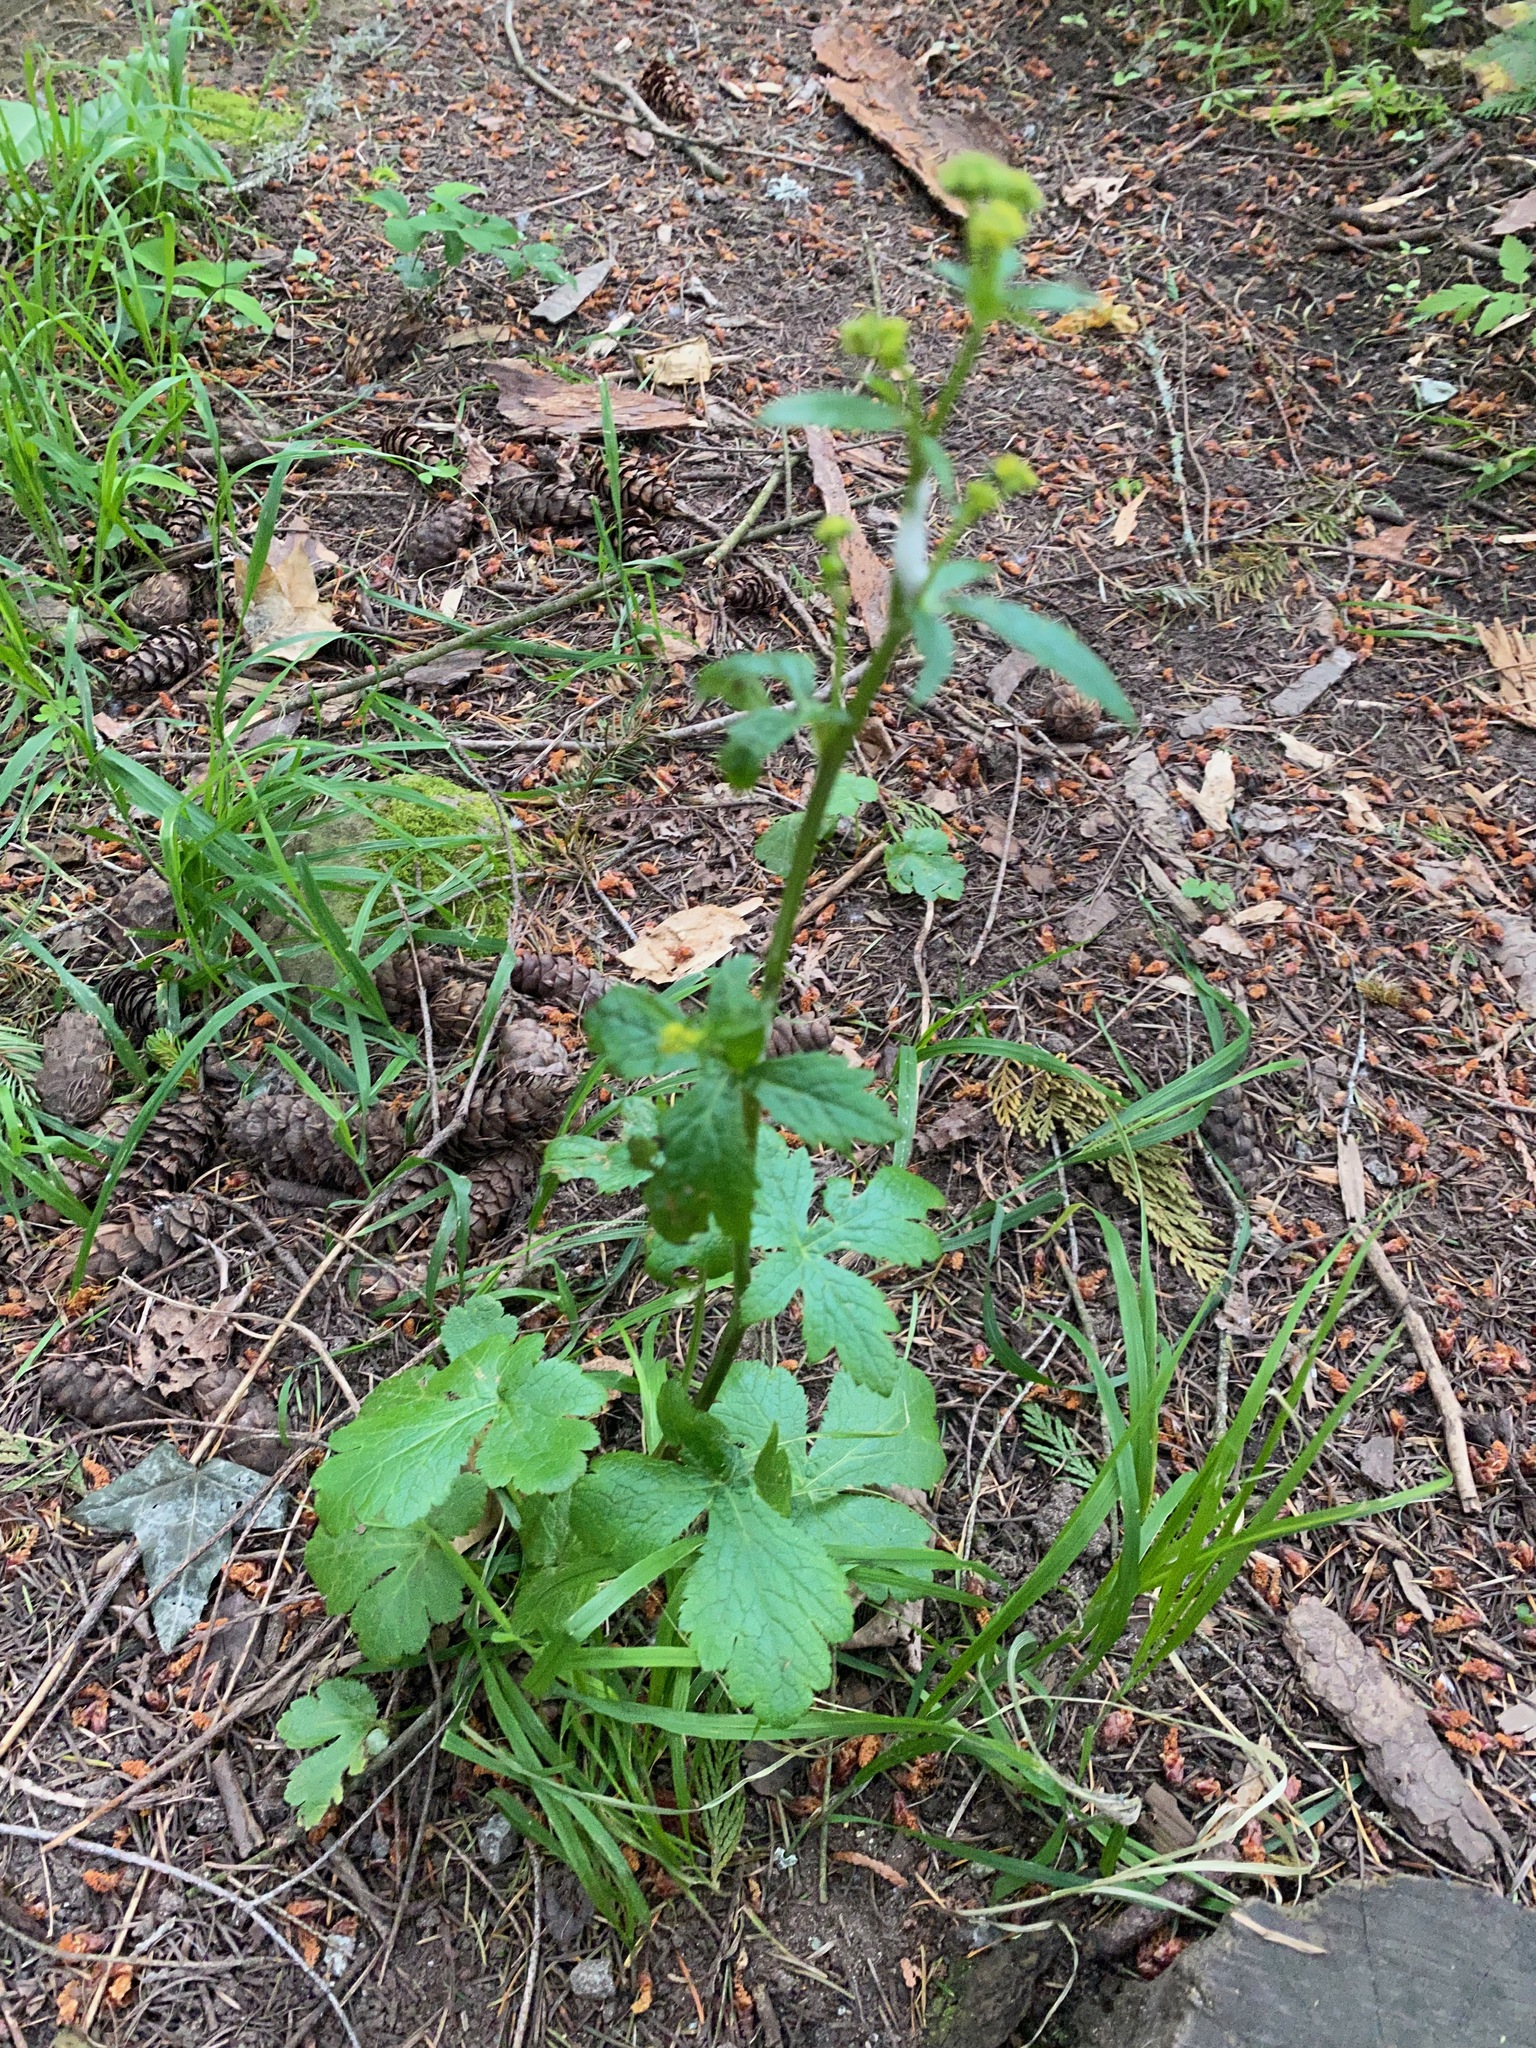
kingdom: Plantae
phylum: Tracheophyta
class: Magnoliopsida
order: Apiales
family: Apiaceae
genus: Sanicula
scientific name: Sanicula crassicaulis
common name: Western snakeroot
